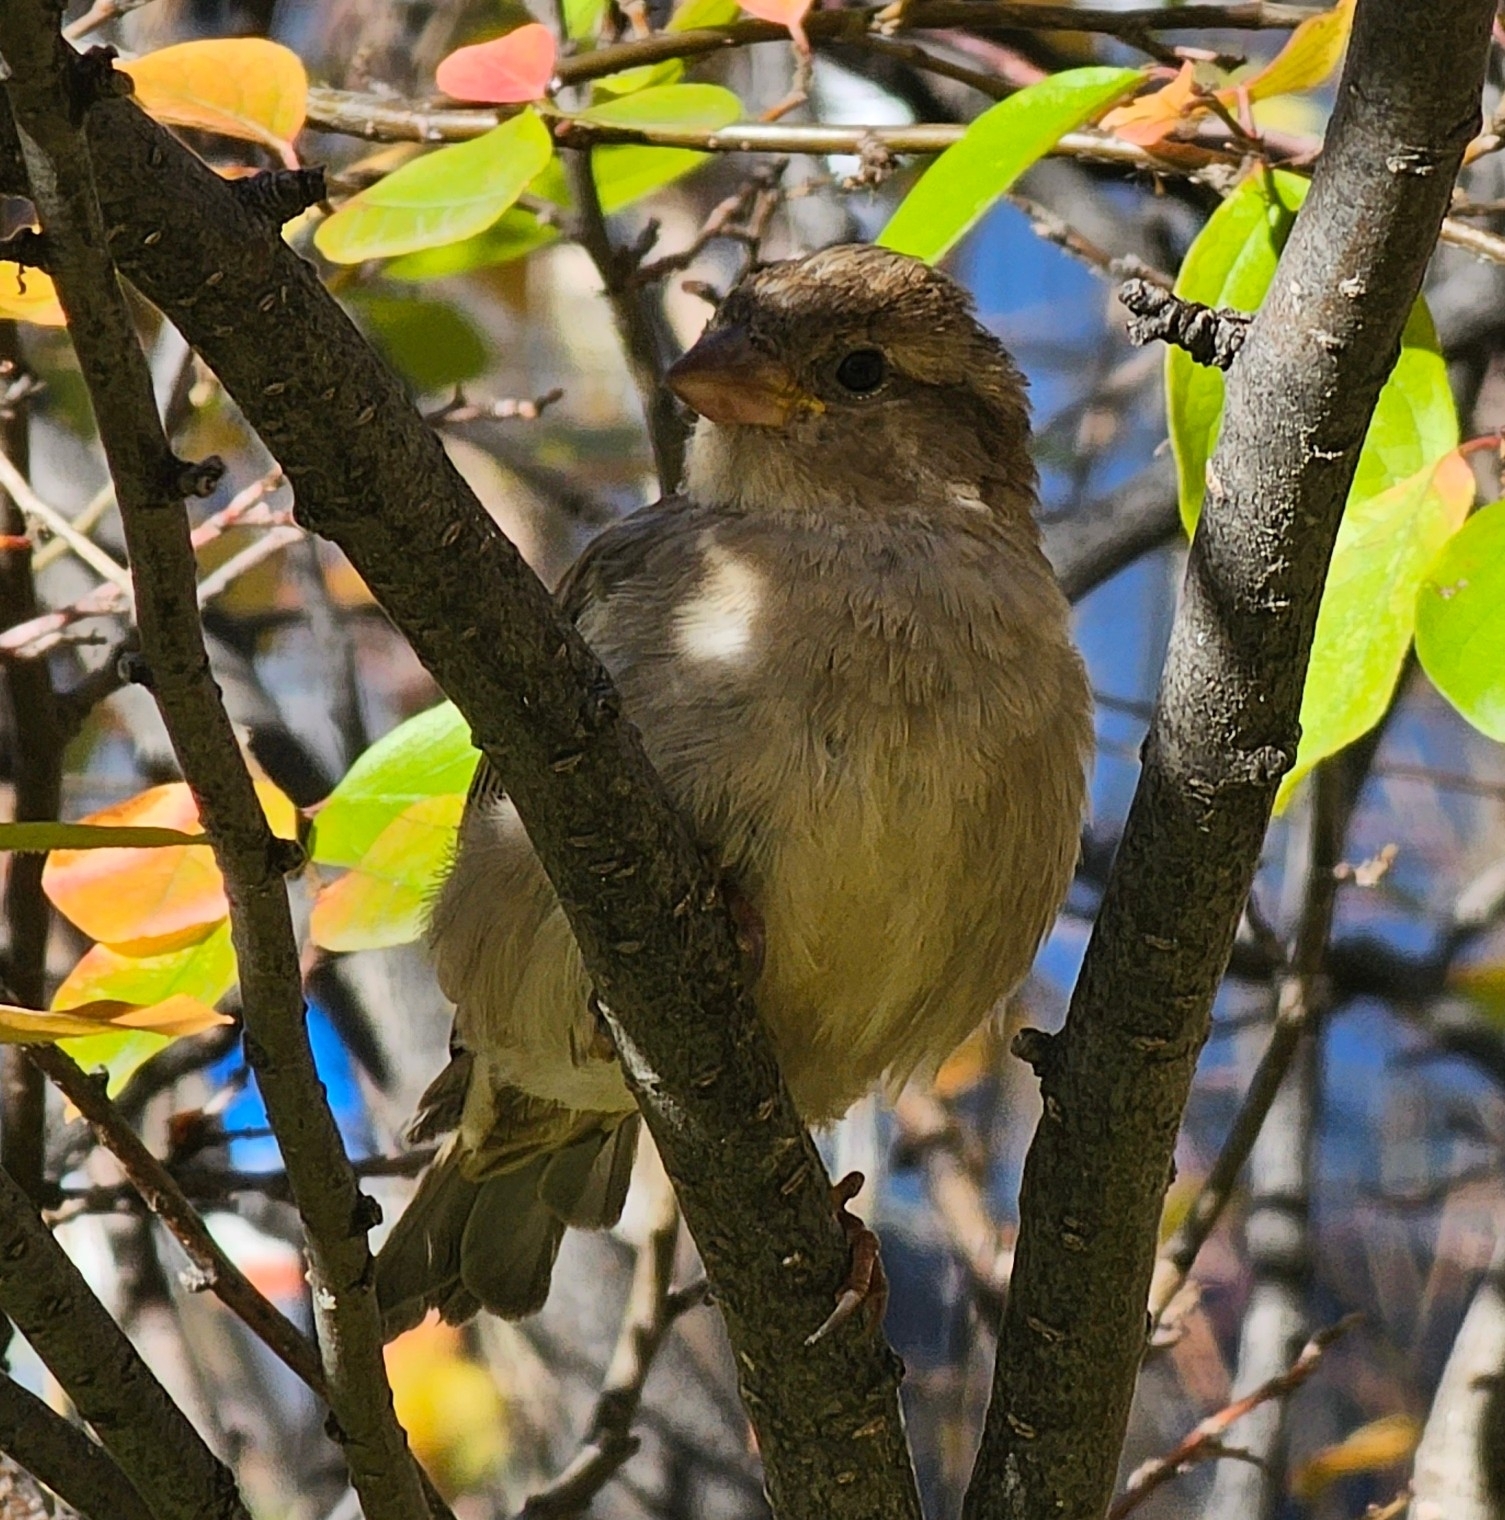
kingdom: Animalia
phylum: Chordata
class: Aves
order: Passeriformes
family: Passeridae
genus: Passer
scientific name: Passer domesticus
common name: House sparrow
